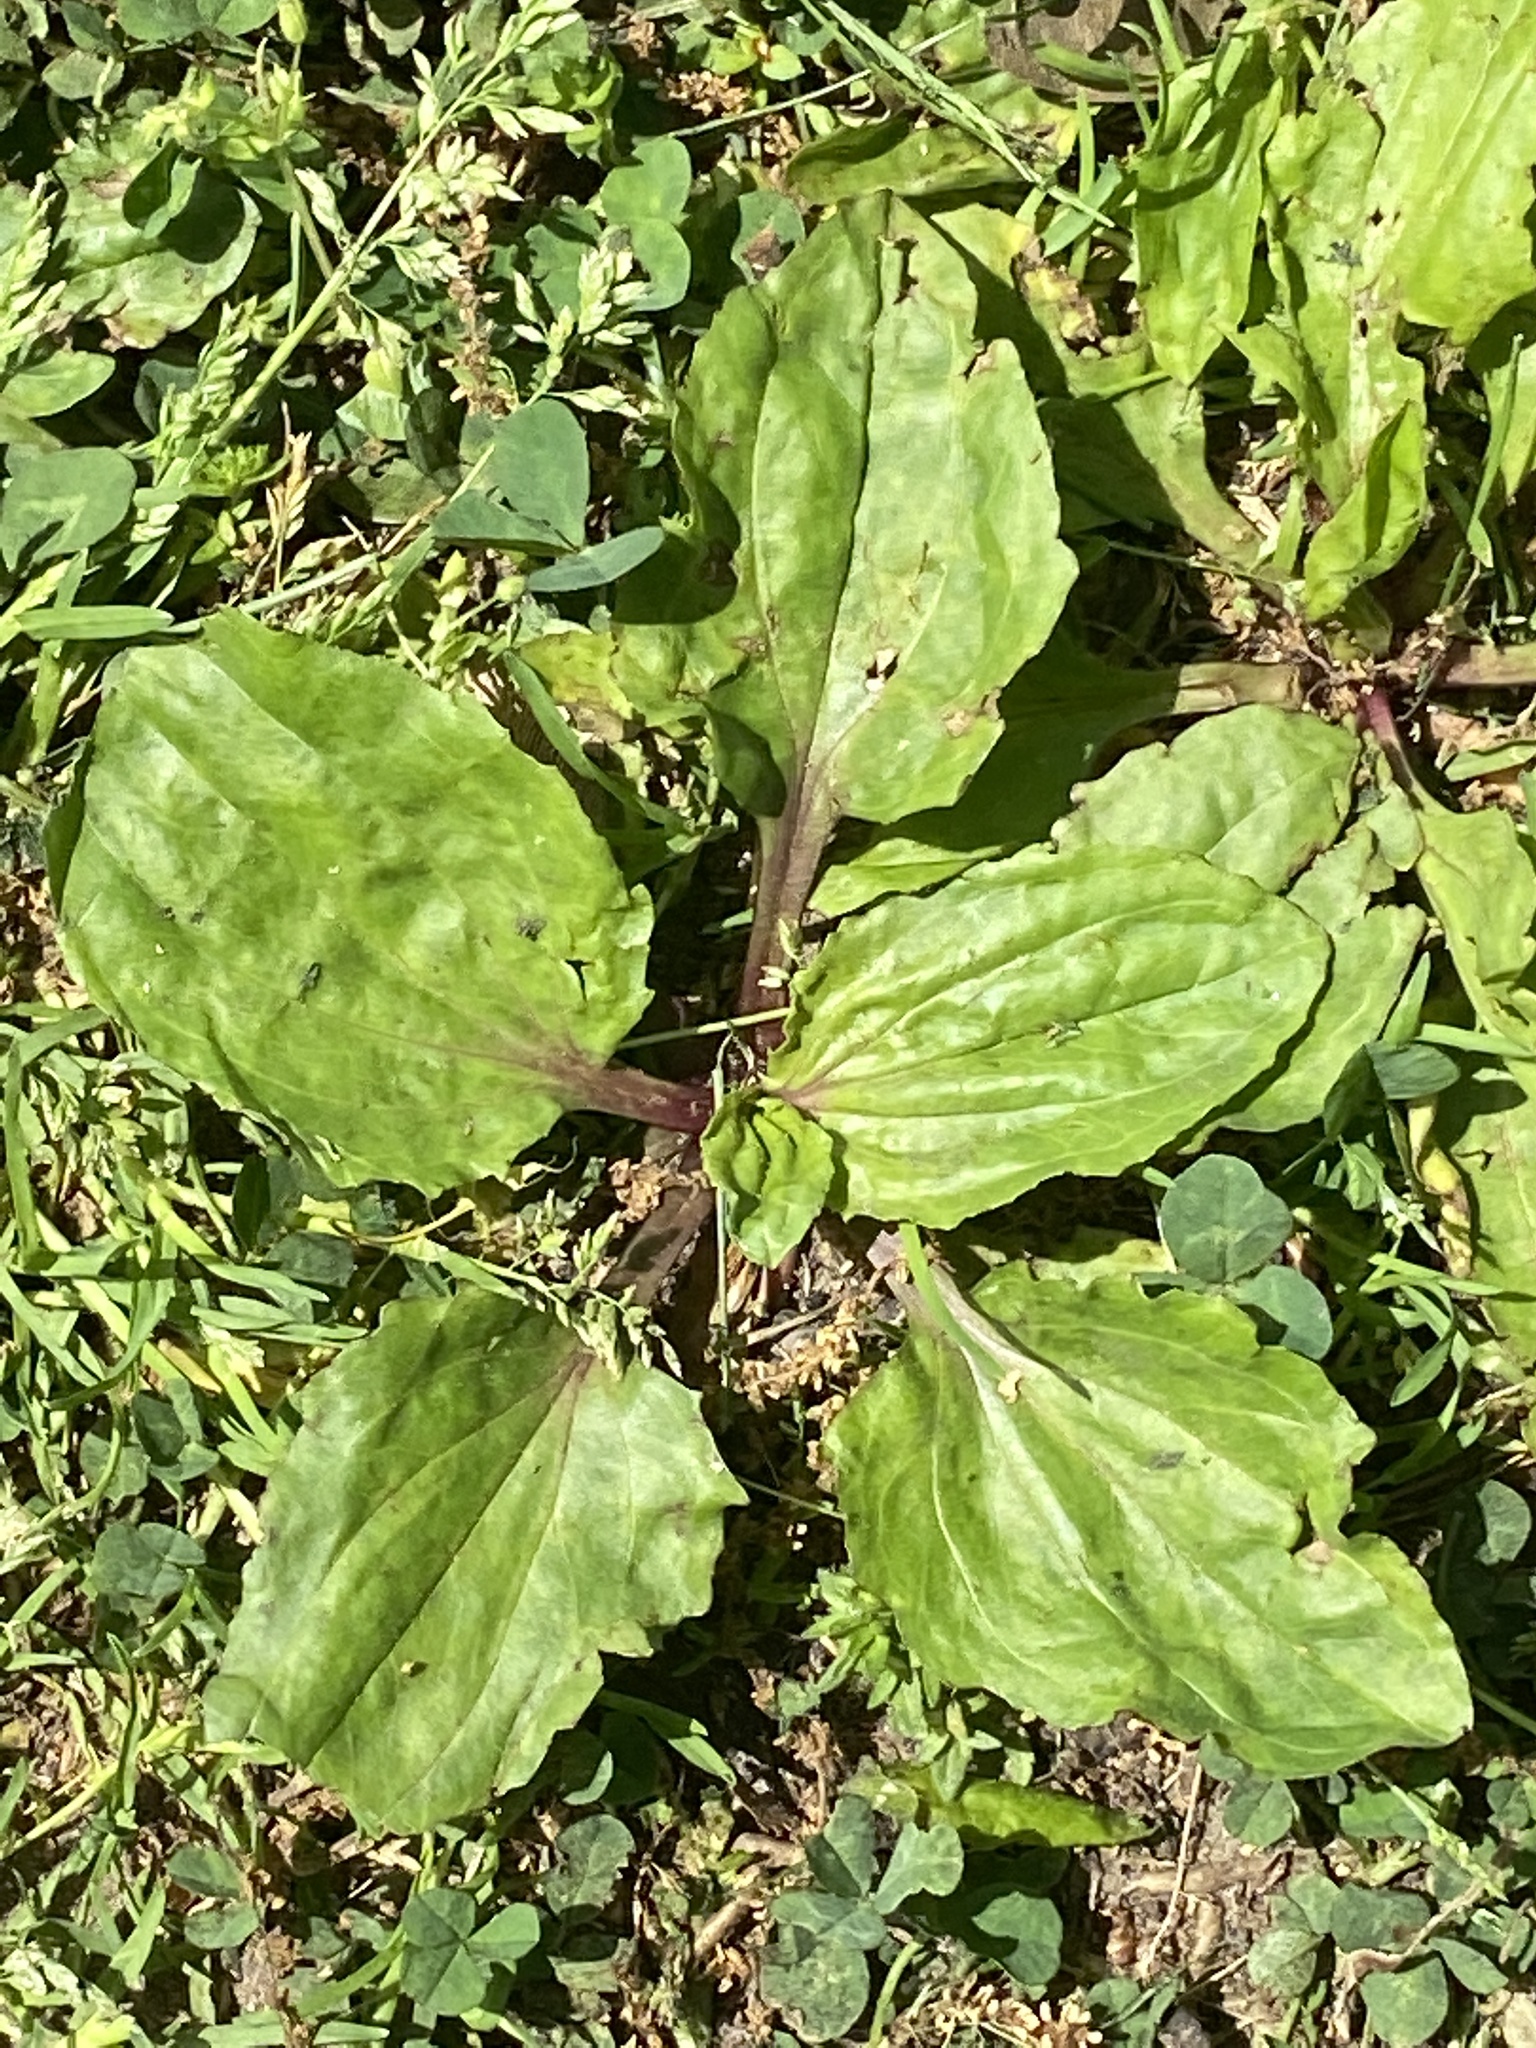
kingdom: Plantae
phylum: Tracheophyta
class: Magnoliopsida
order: Lamiales
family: Plantaginaceae
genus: Plantago
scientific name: Plantago rugelii
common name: American plantain
